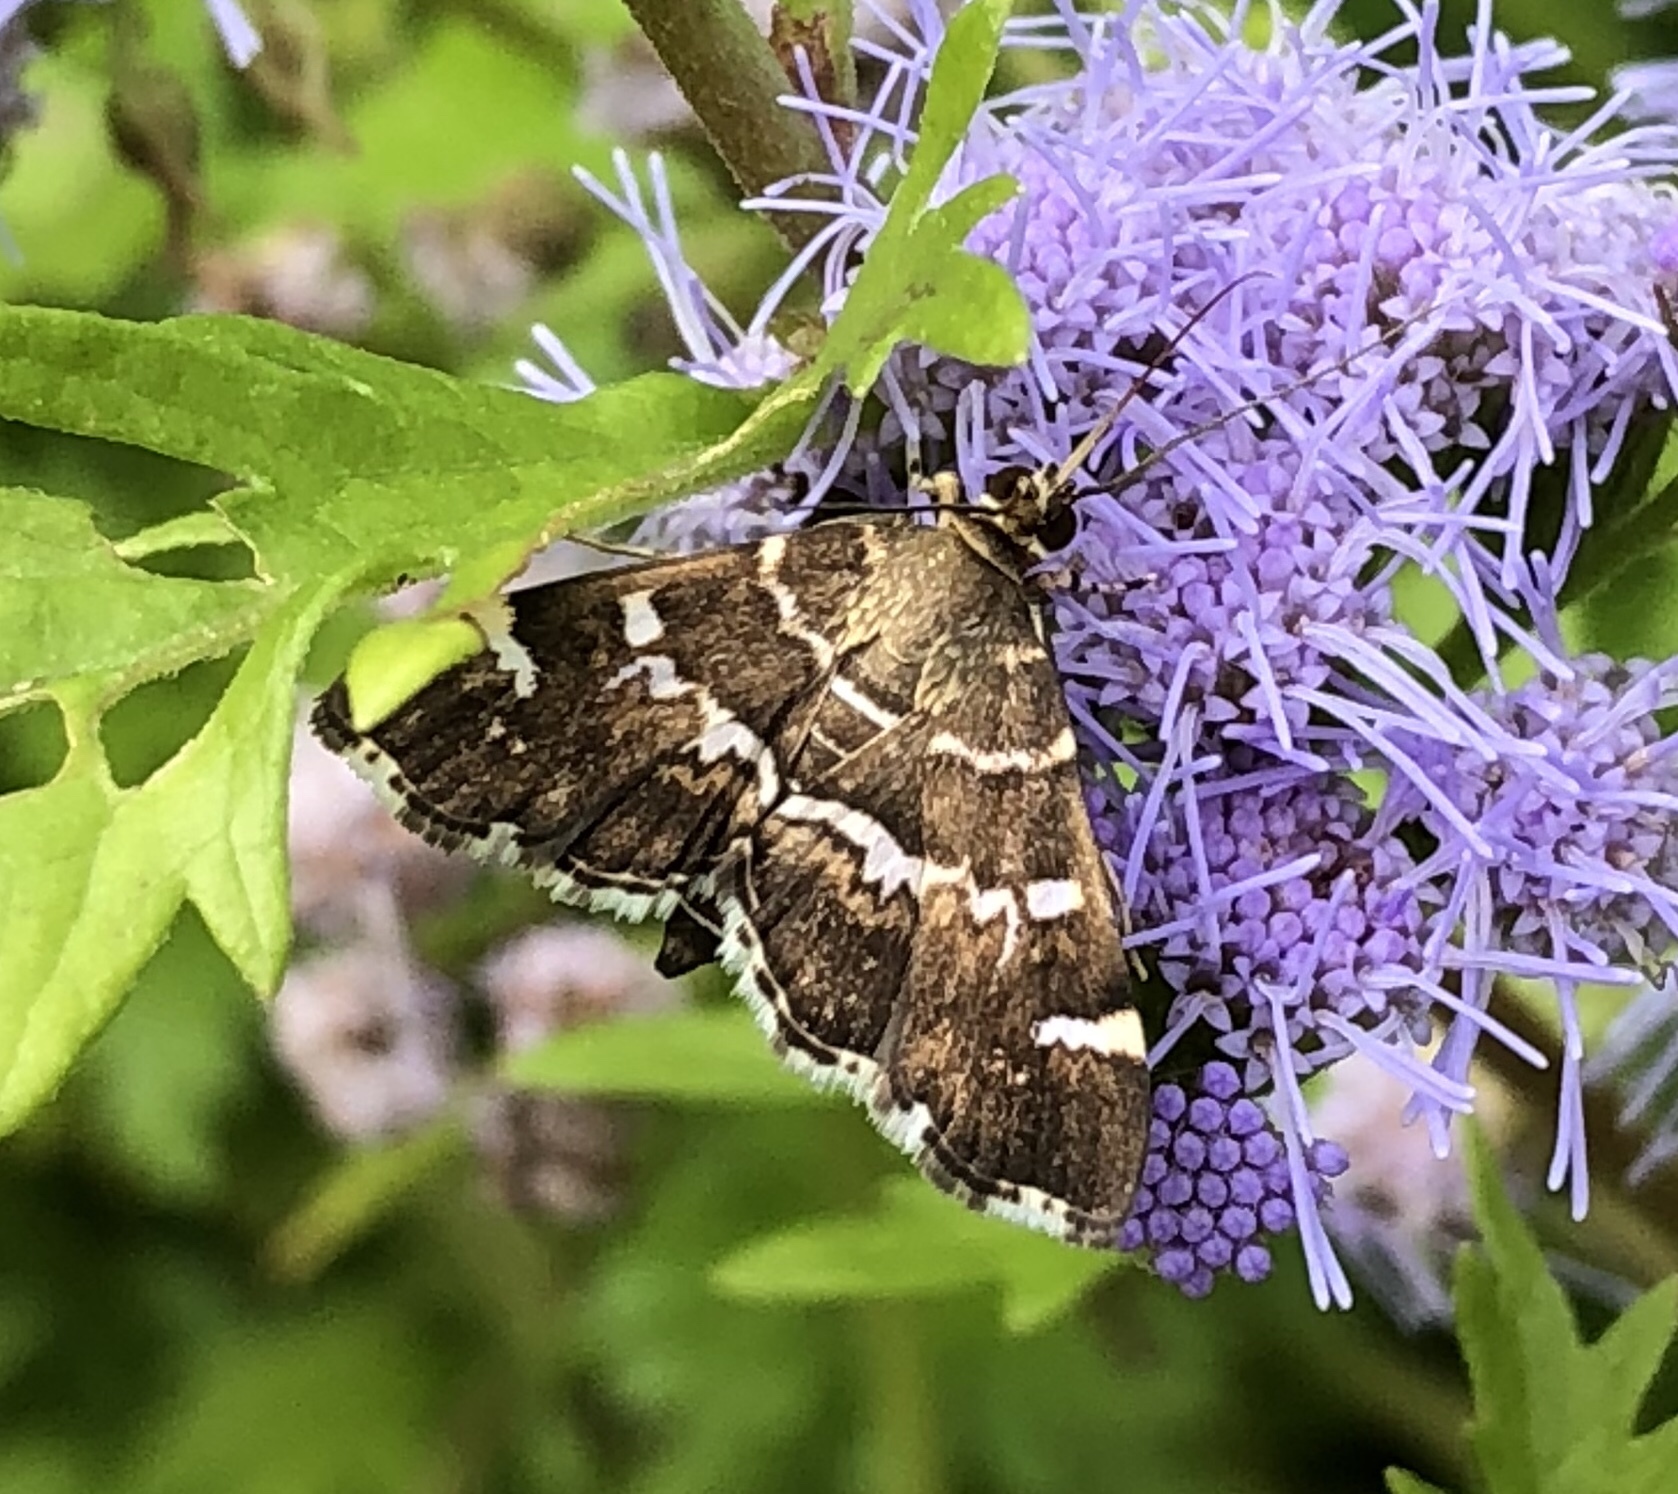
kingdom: Animalia
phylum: Arthropoda
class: Insecta
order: Lepidoptera
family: Crambidae
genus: Hymenia
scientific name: Hymenia perspectalis
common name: Spotted beet webworm
